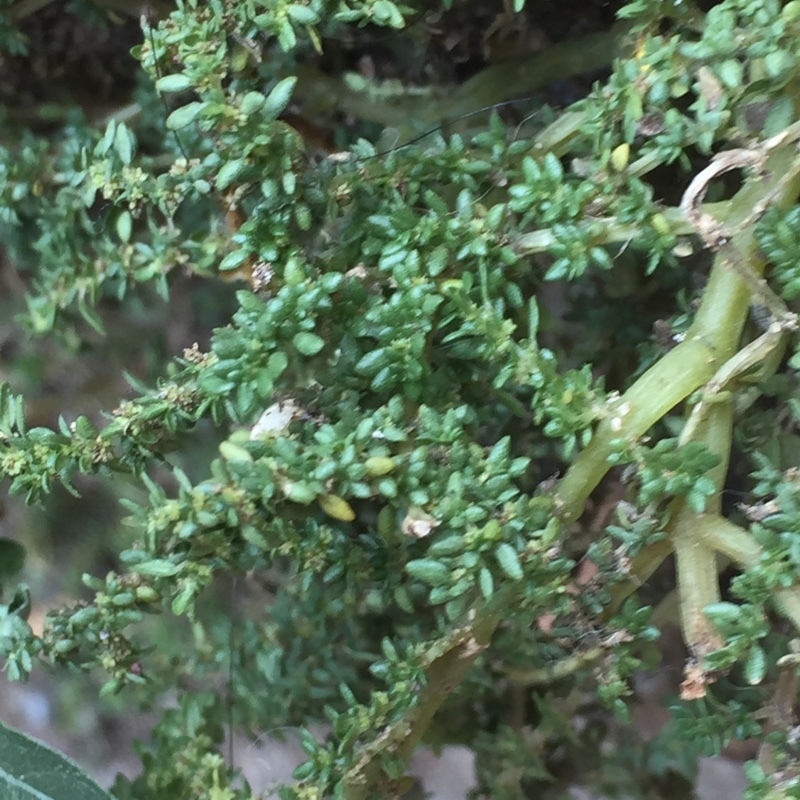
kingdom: Plantae
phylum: Tracheophyta
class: Magnoliopsida
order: Rosales
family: Urticaceae
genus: Pilea
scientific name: Pilea microphylla
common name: Artillery-plant
